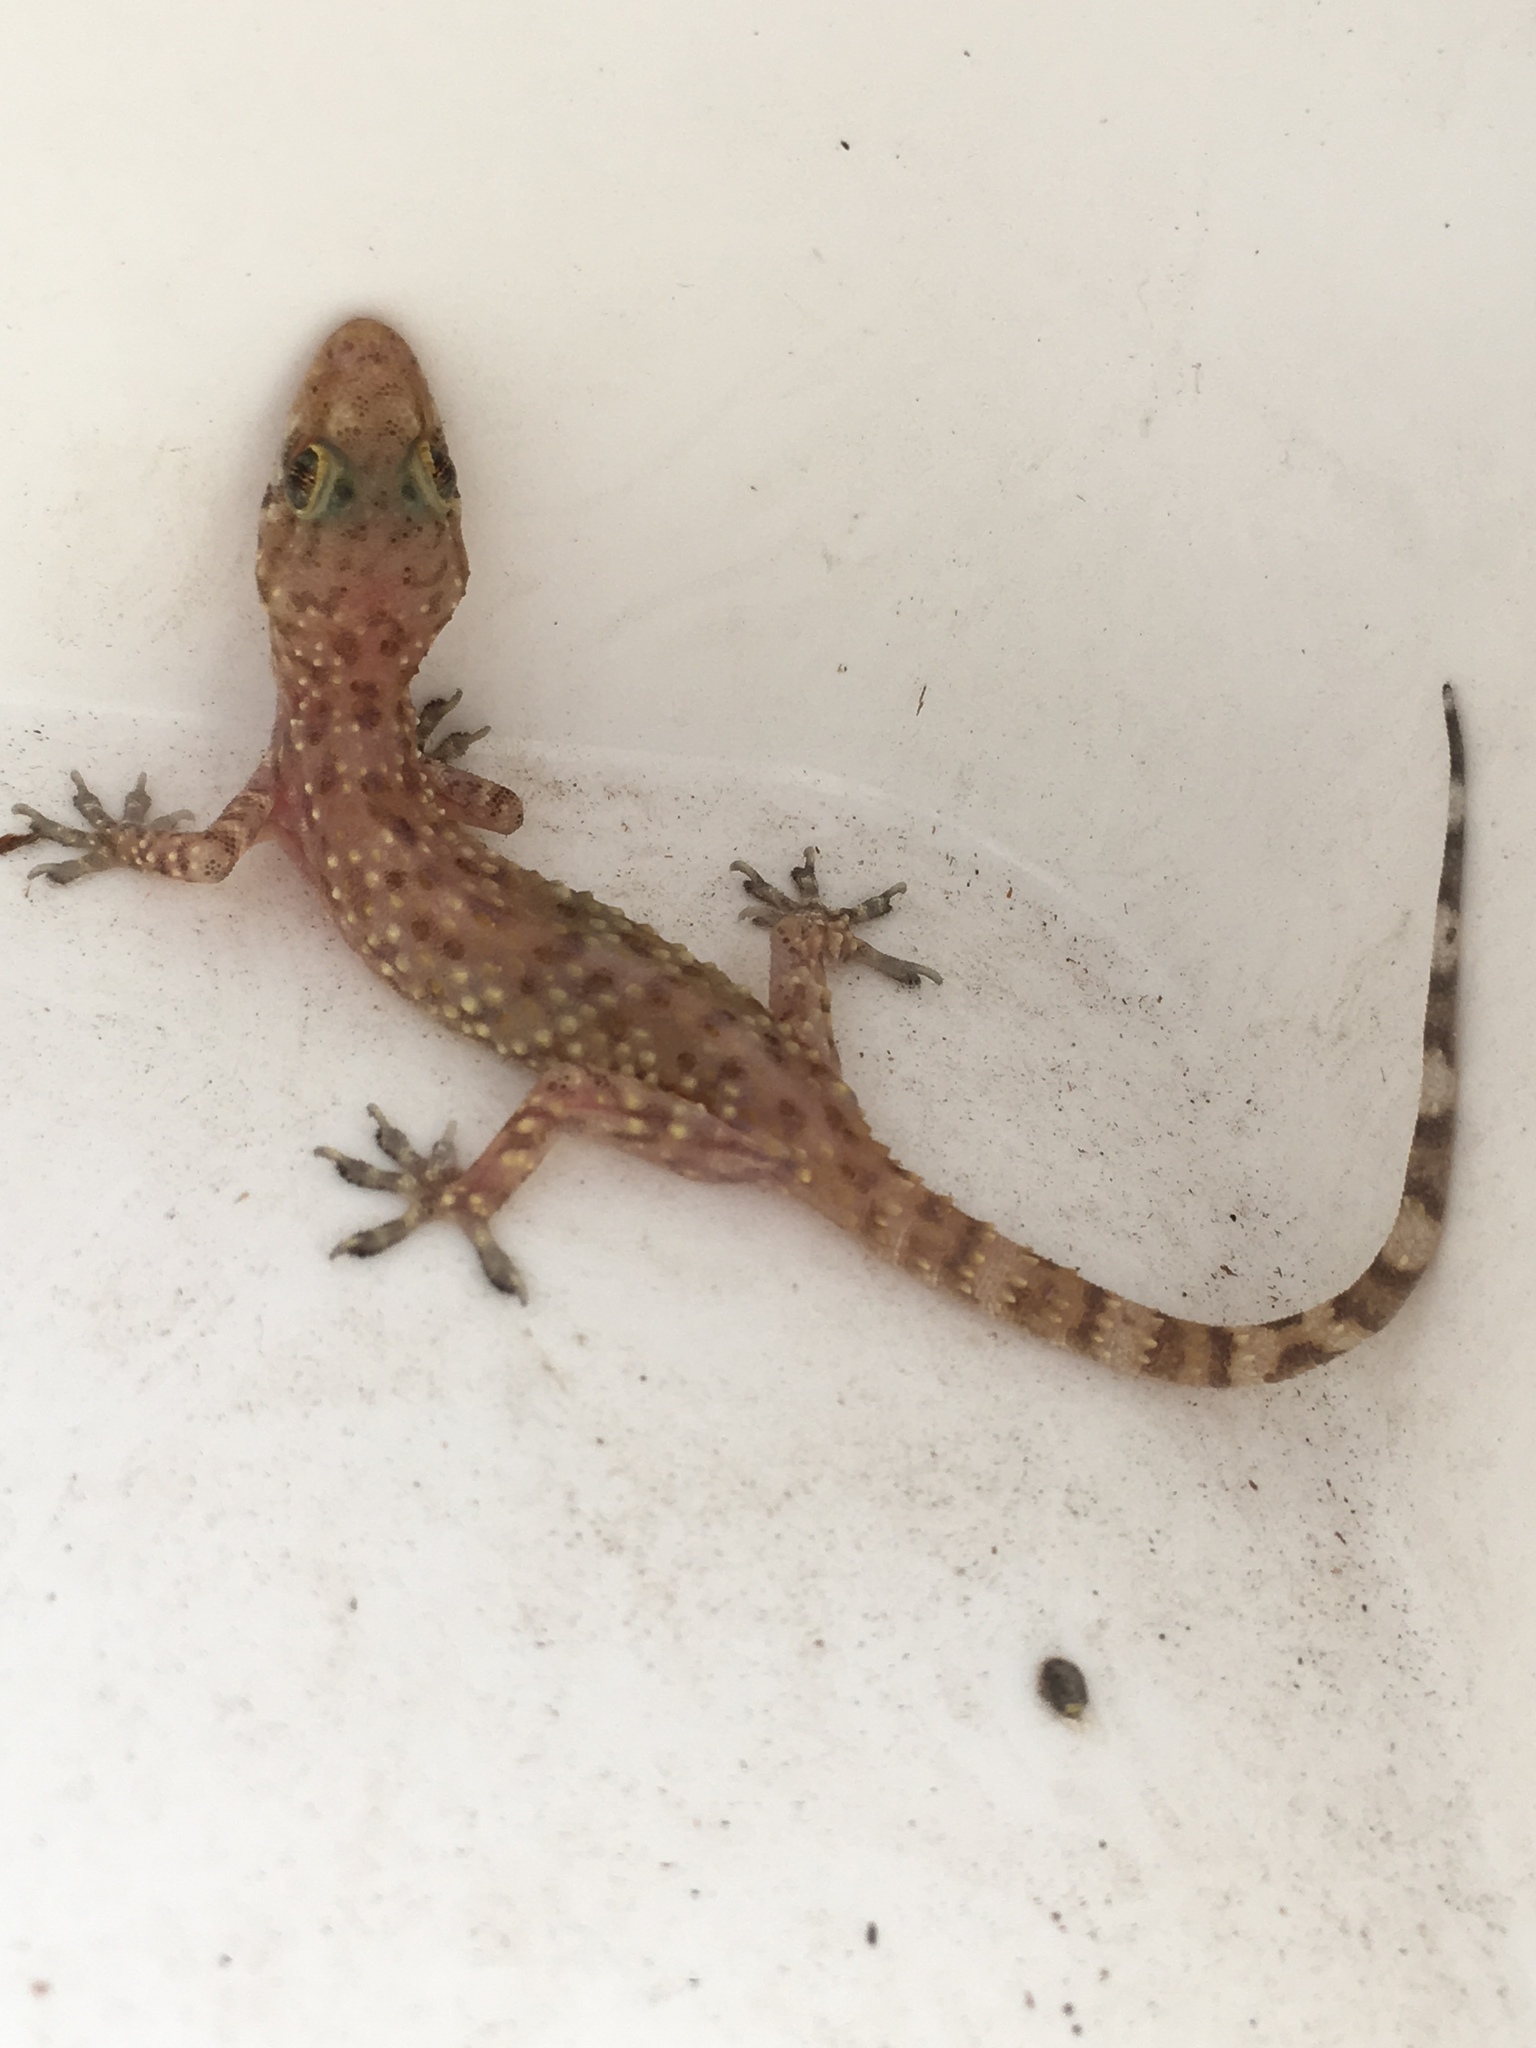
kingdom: Animalia
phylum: Chordata
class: Squamata
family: Gekkonidae
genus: Hemidactylus
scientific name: Hemidactylus turcicus
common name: Turkish gecko
